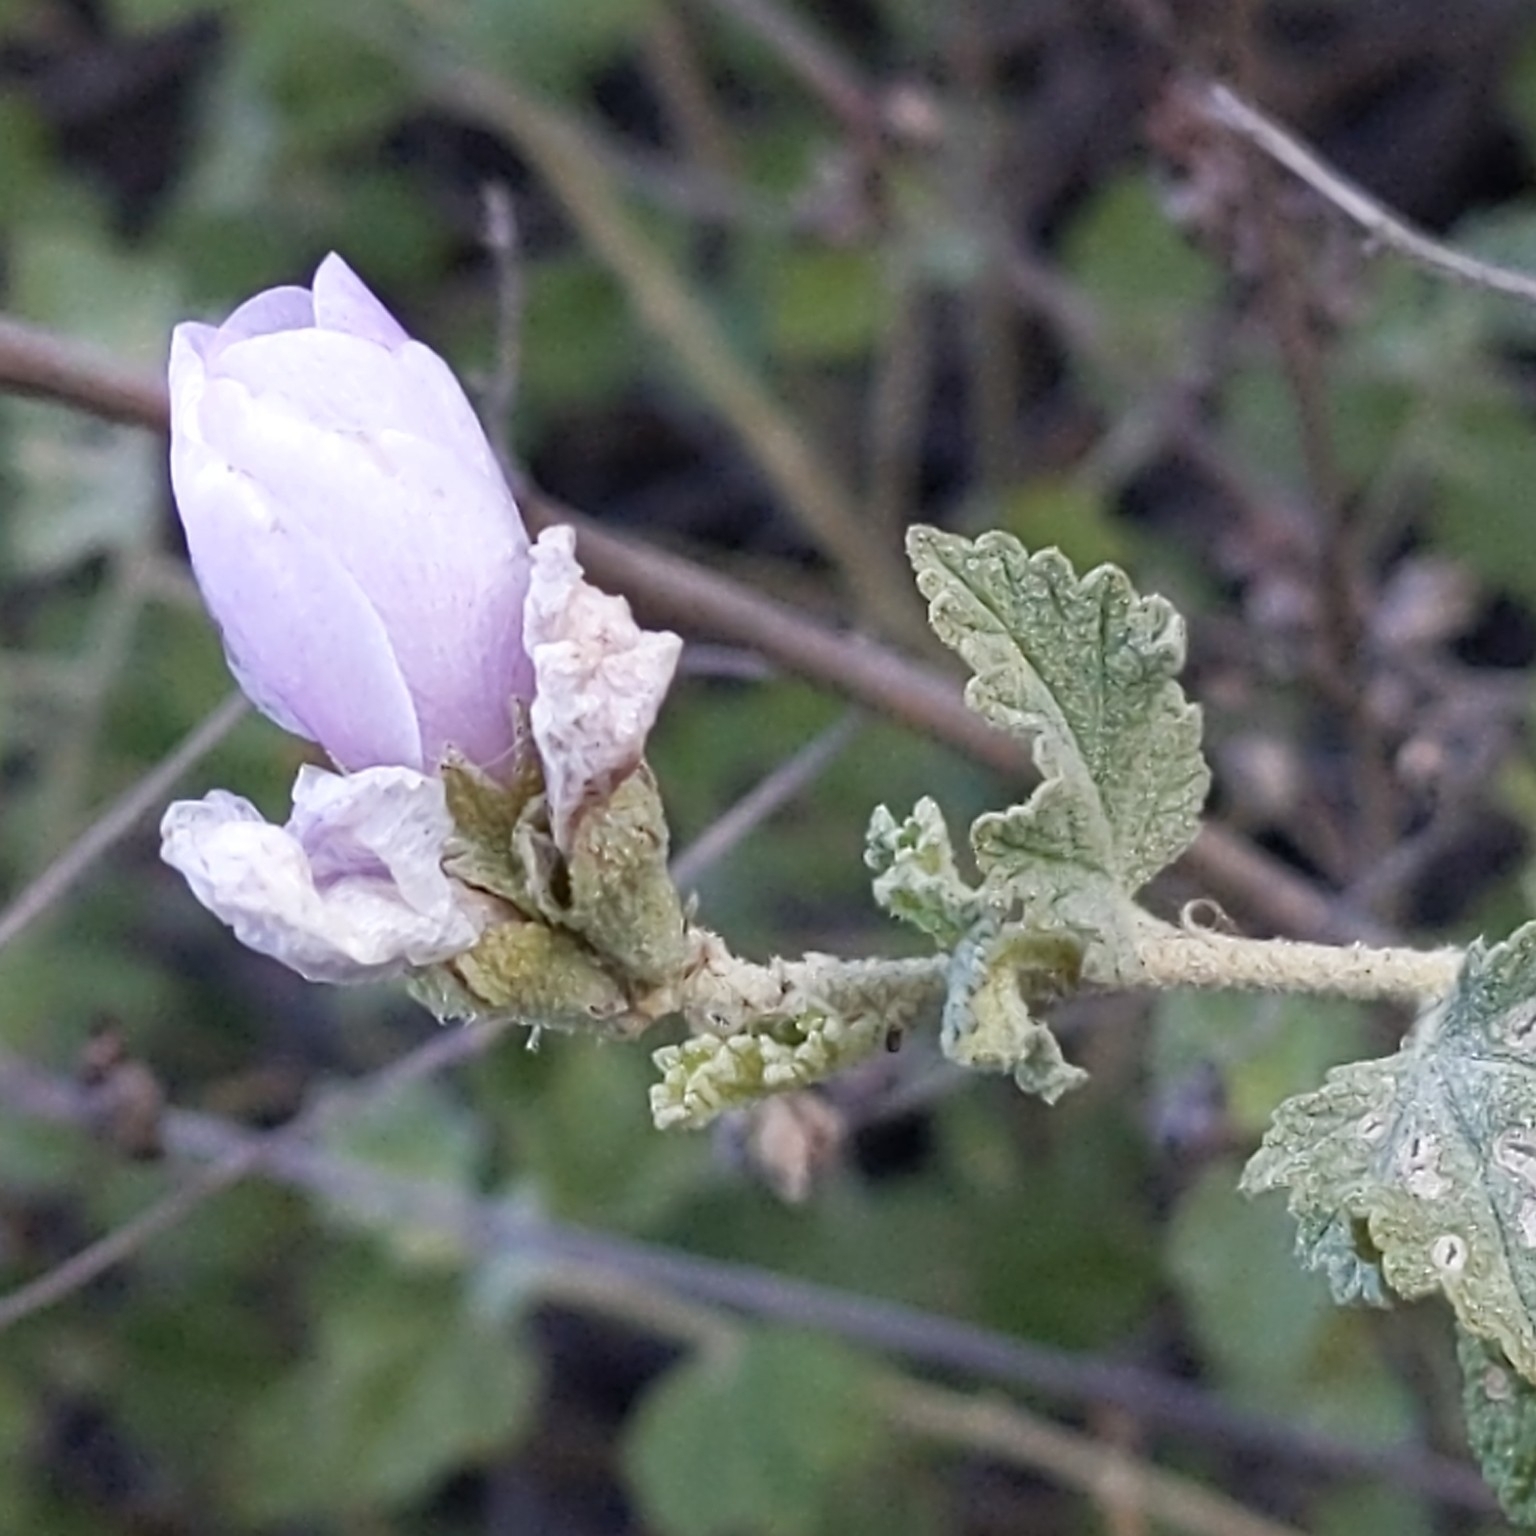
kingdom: Plantae
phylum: Tracheophyta
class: Magnoliopsida
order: Malvales
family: Malvaceae
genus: Malacothamnus
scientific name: Malacothamnus fasciculatus
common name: Sant cruz island bush-mallow
